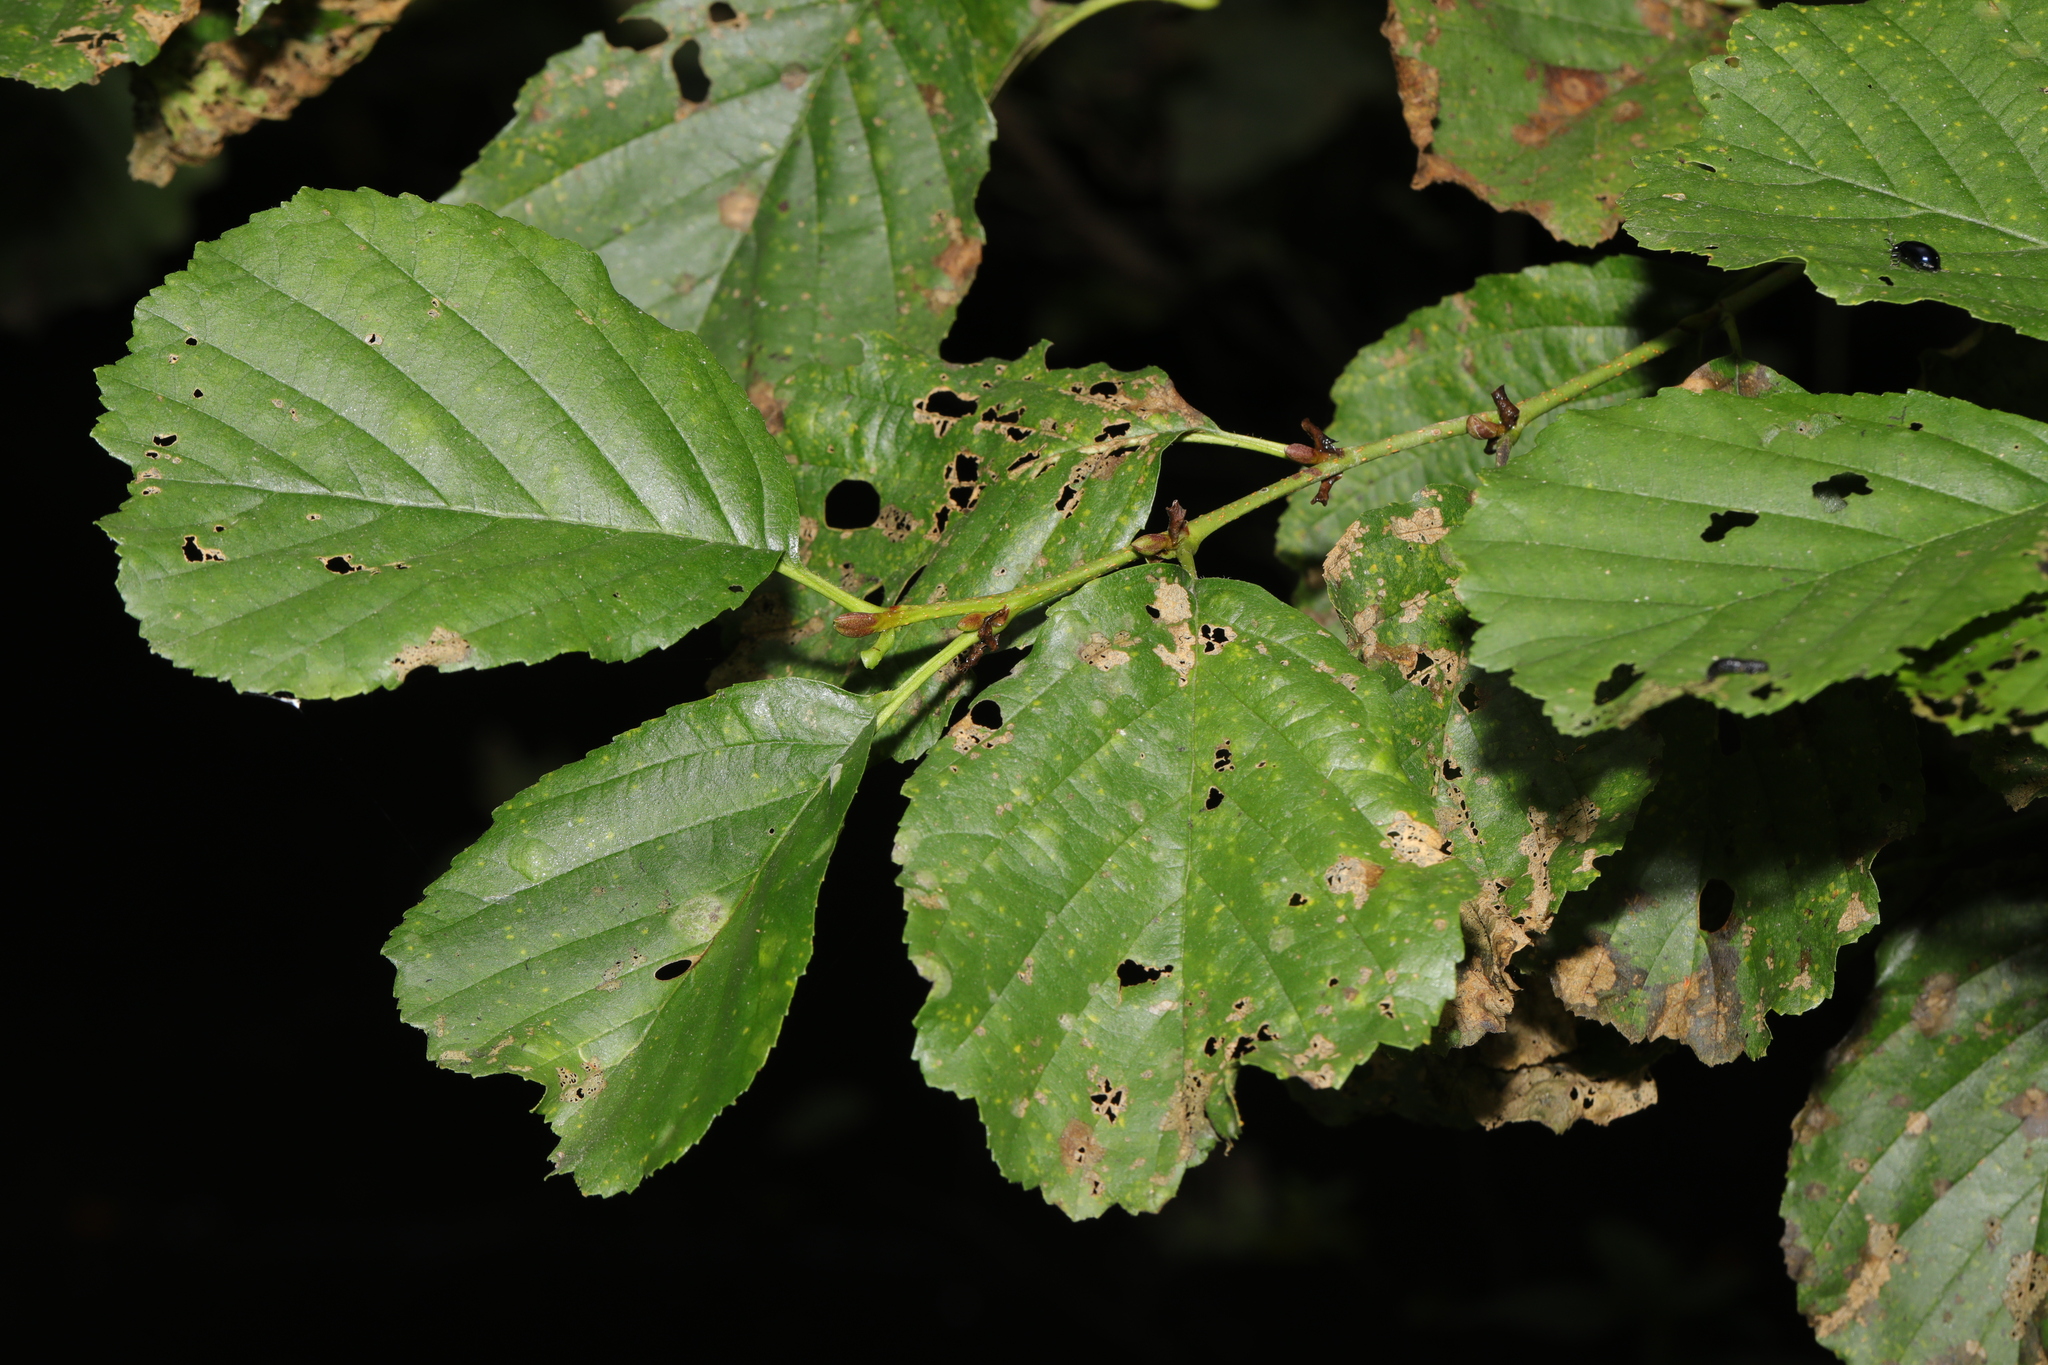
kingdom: Plantae
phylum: Tracheophyta
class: Magnoliopsida
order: Fagales
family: Betulaceae
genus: Alnus
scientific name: Alnus glutinosa
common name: Black alder
